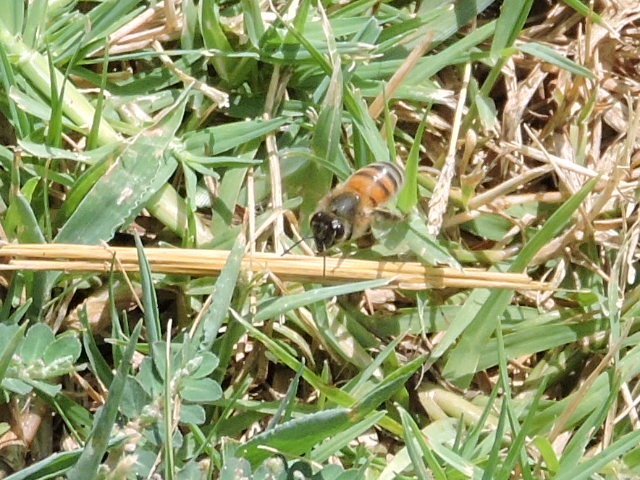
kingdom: Animalia
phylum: Arthropoda
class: Insecta
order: Hymenoptera
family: Apidae
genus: Apis
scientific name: Apis mellifera
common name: Honey bee
